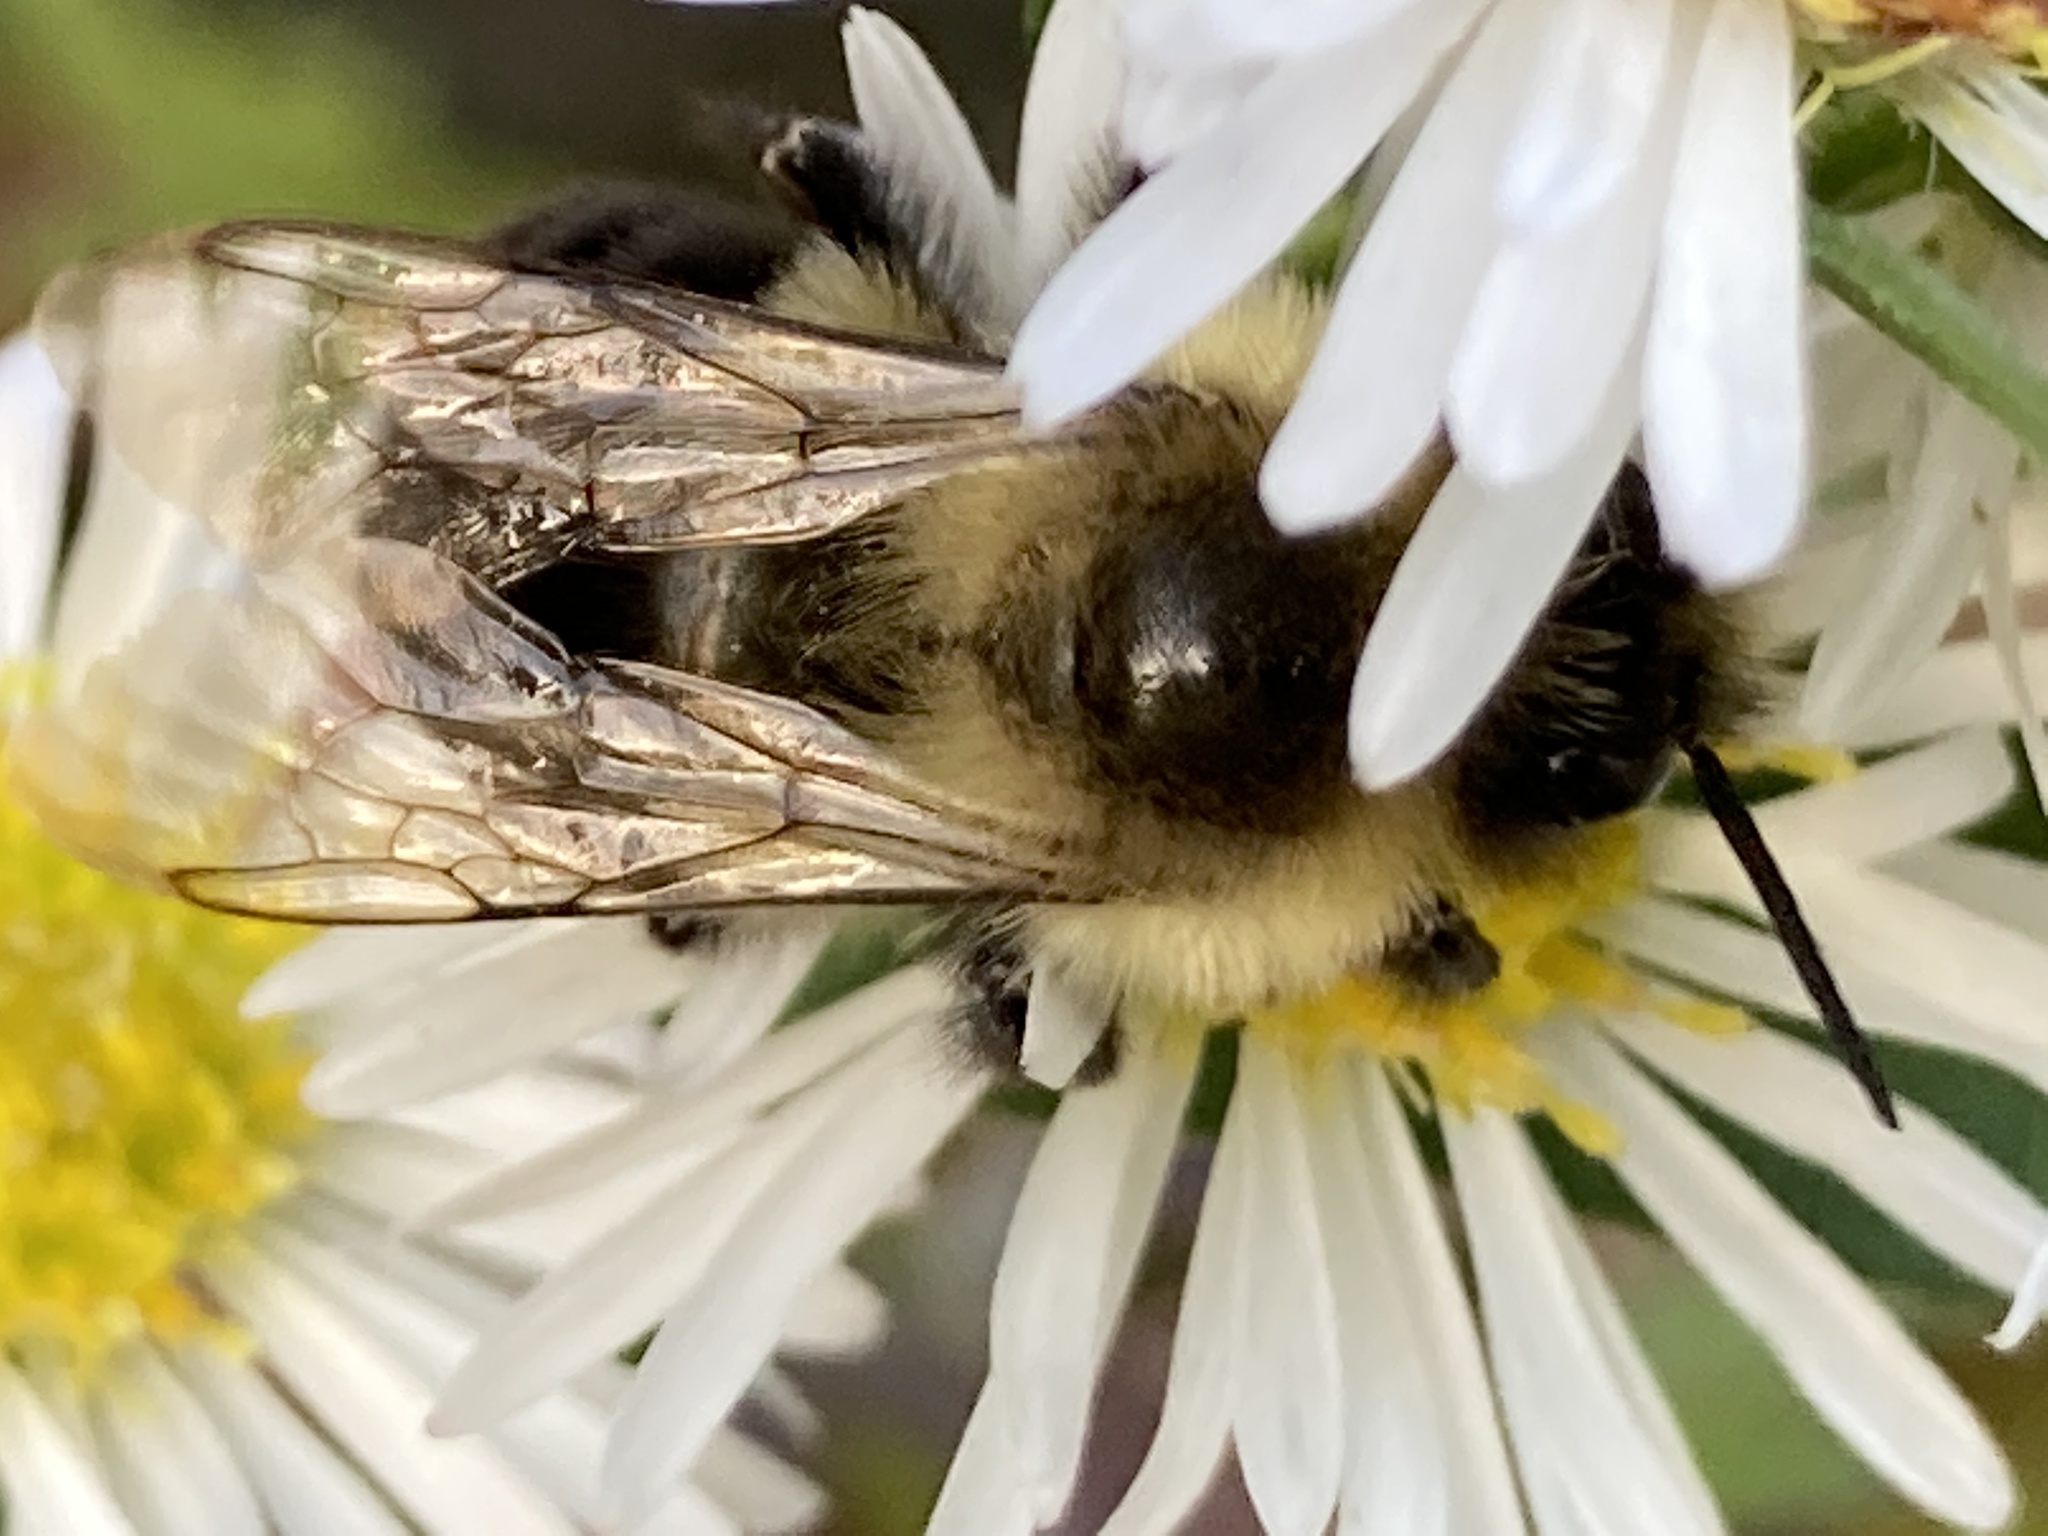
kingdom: Animalia
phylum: Arthropoda
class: Insecta
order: Hymenoptera
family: Apidae
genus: Bombus
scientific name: Bombus impatiens
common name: Common eastern bumble bee
